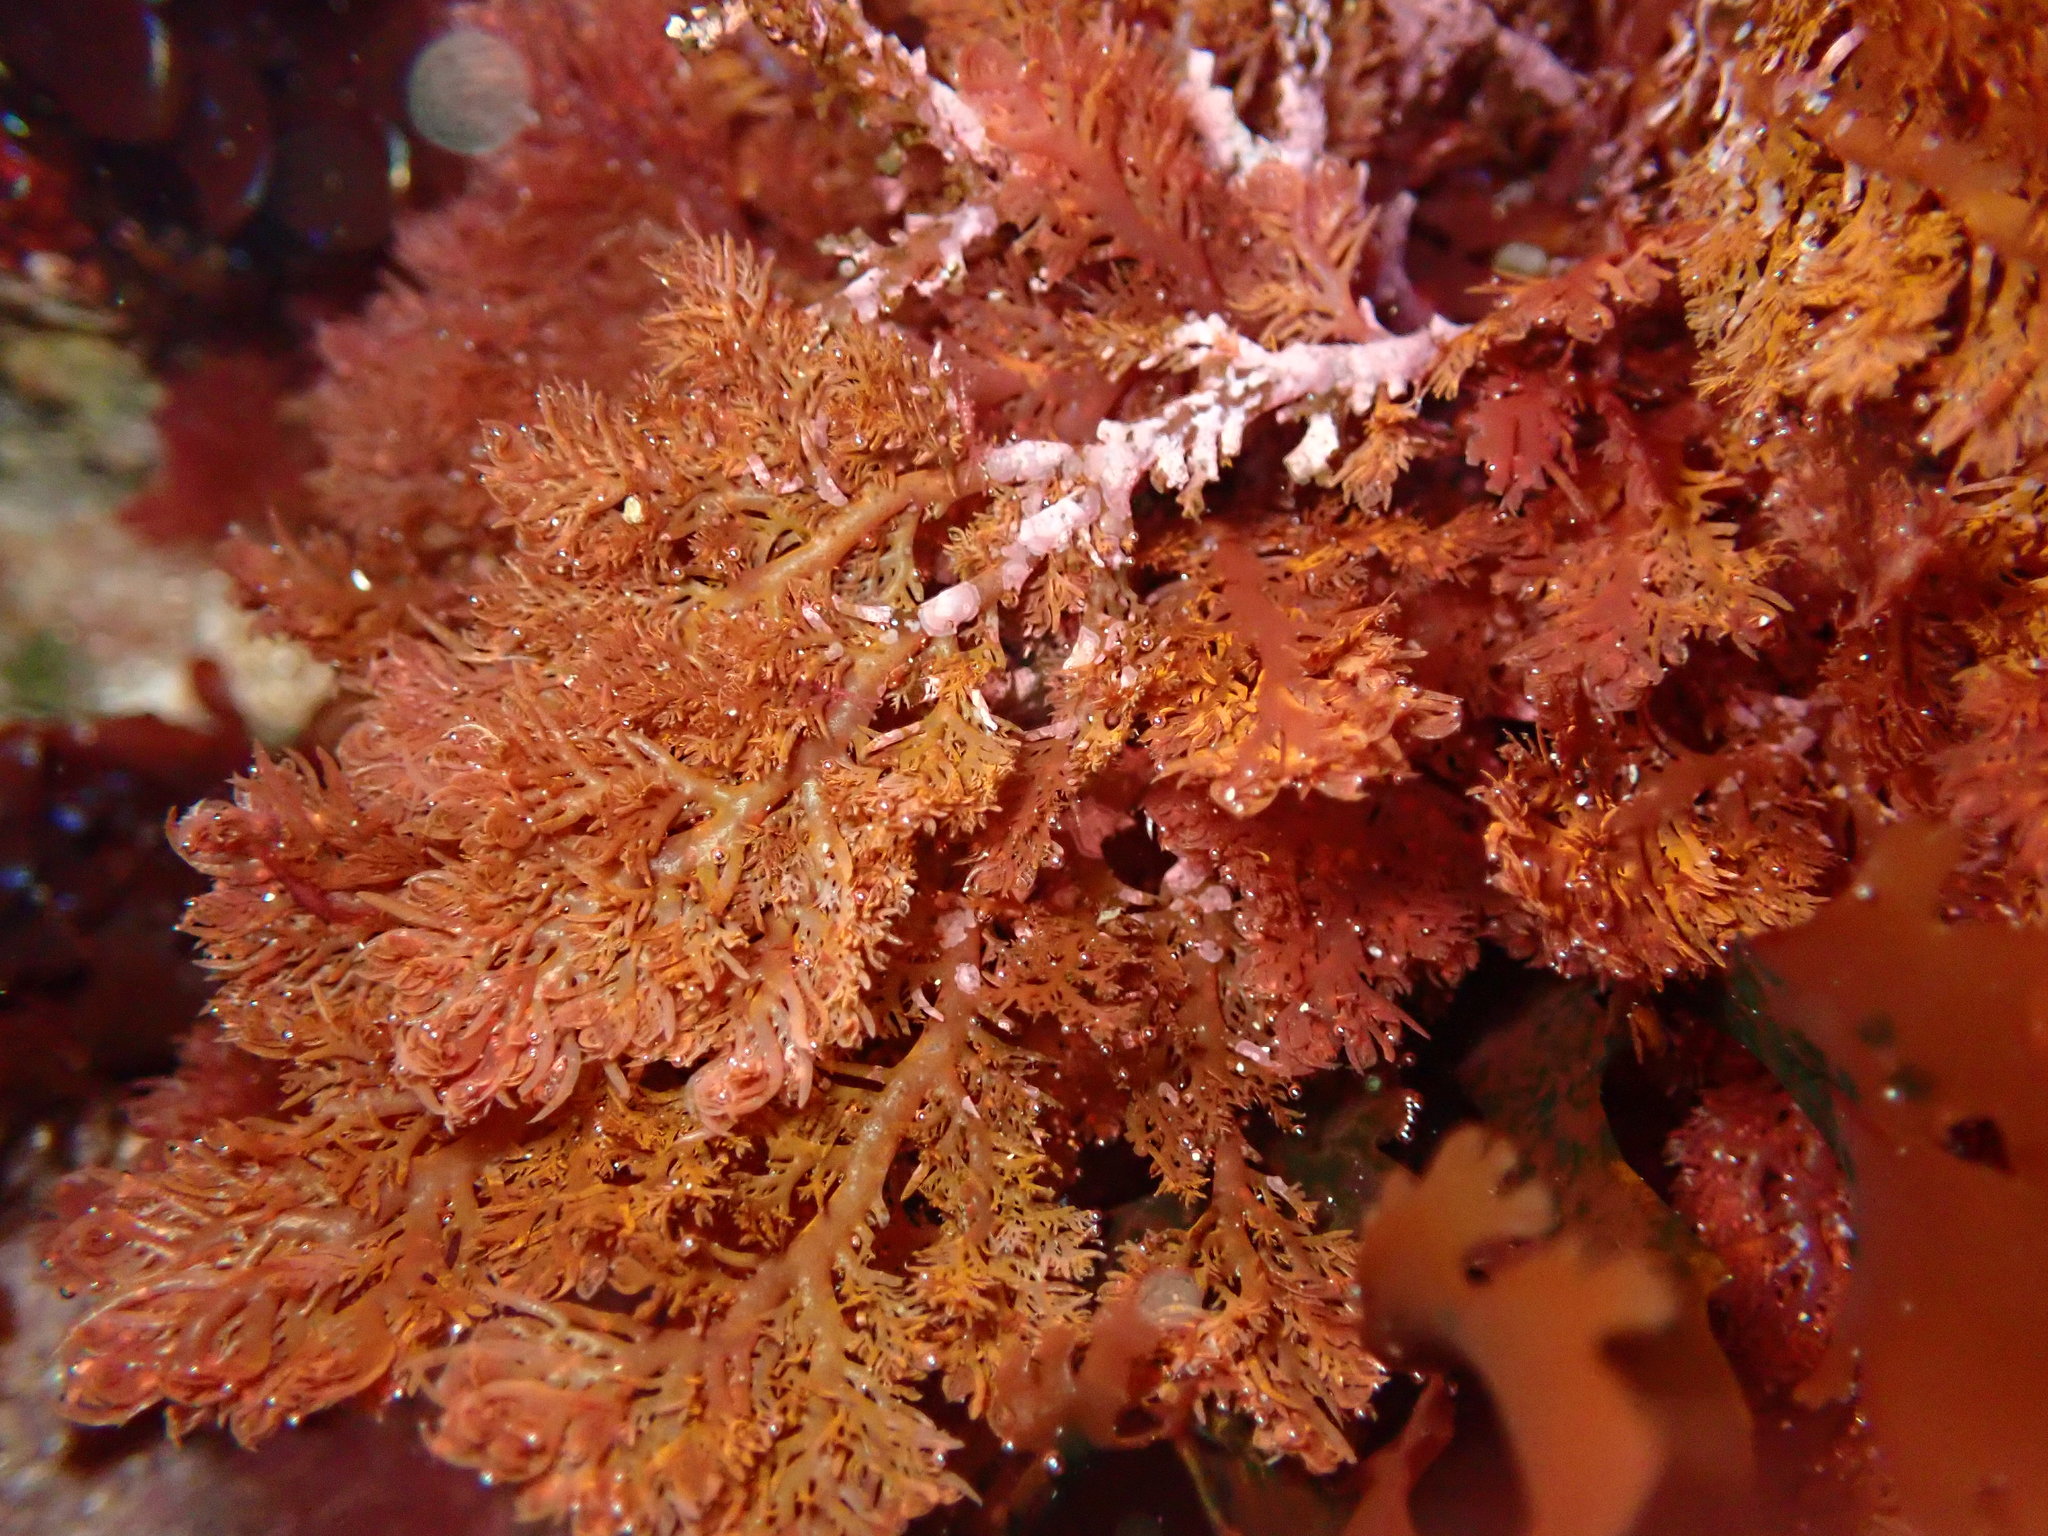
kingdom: Plantae
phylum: Rhodophyta
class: Florideophyceae
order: Plocamiales
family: Plocamiaceae
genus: Plocamium
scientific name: Plocamium cartilagineum
